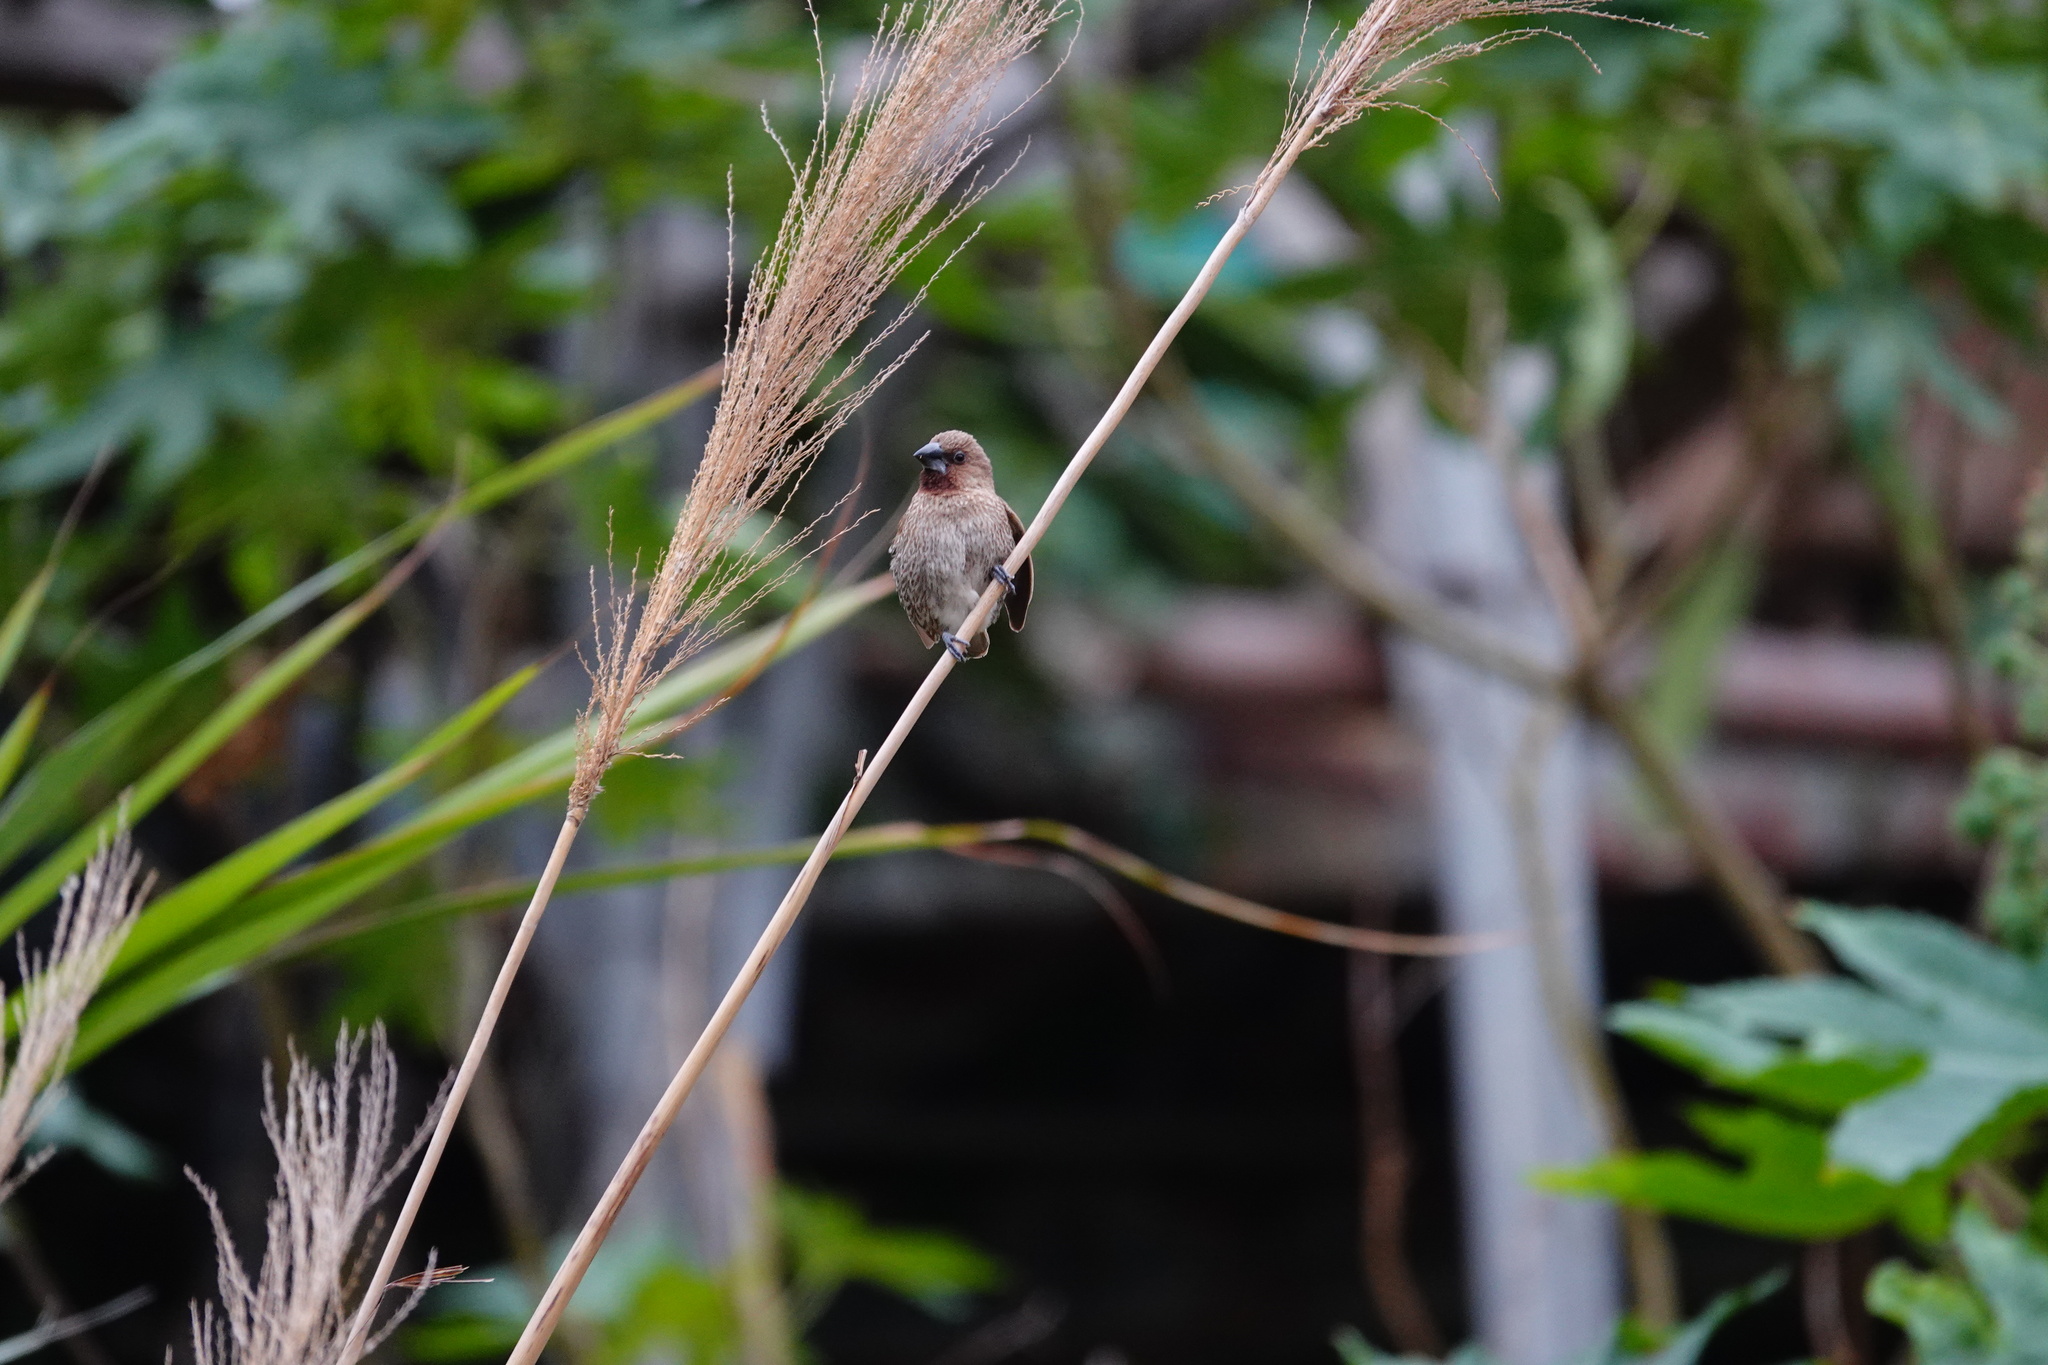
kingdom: Animalia
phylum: Chordata
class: Aves
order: Passeriformes
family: Estrildidae
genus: Lonchura
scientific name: Lonchura punctulata
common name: Scaly-breasted munia
